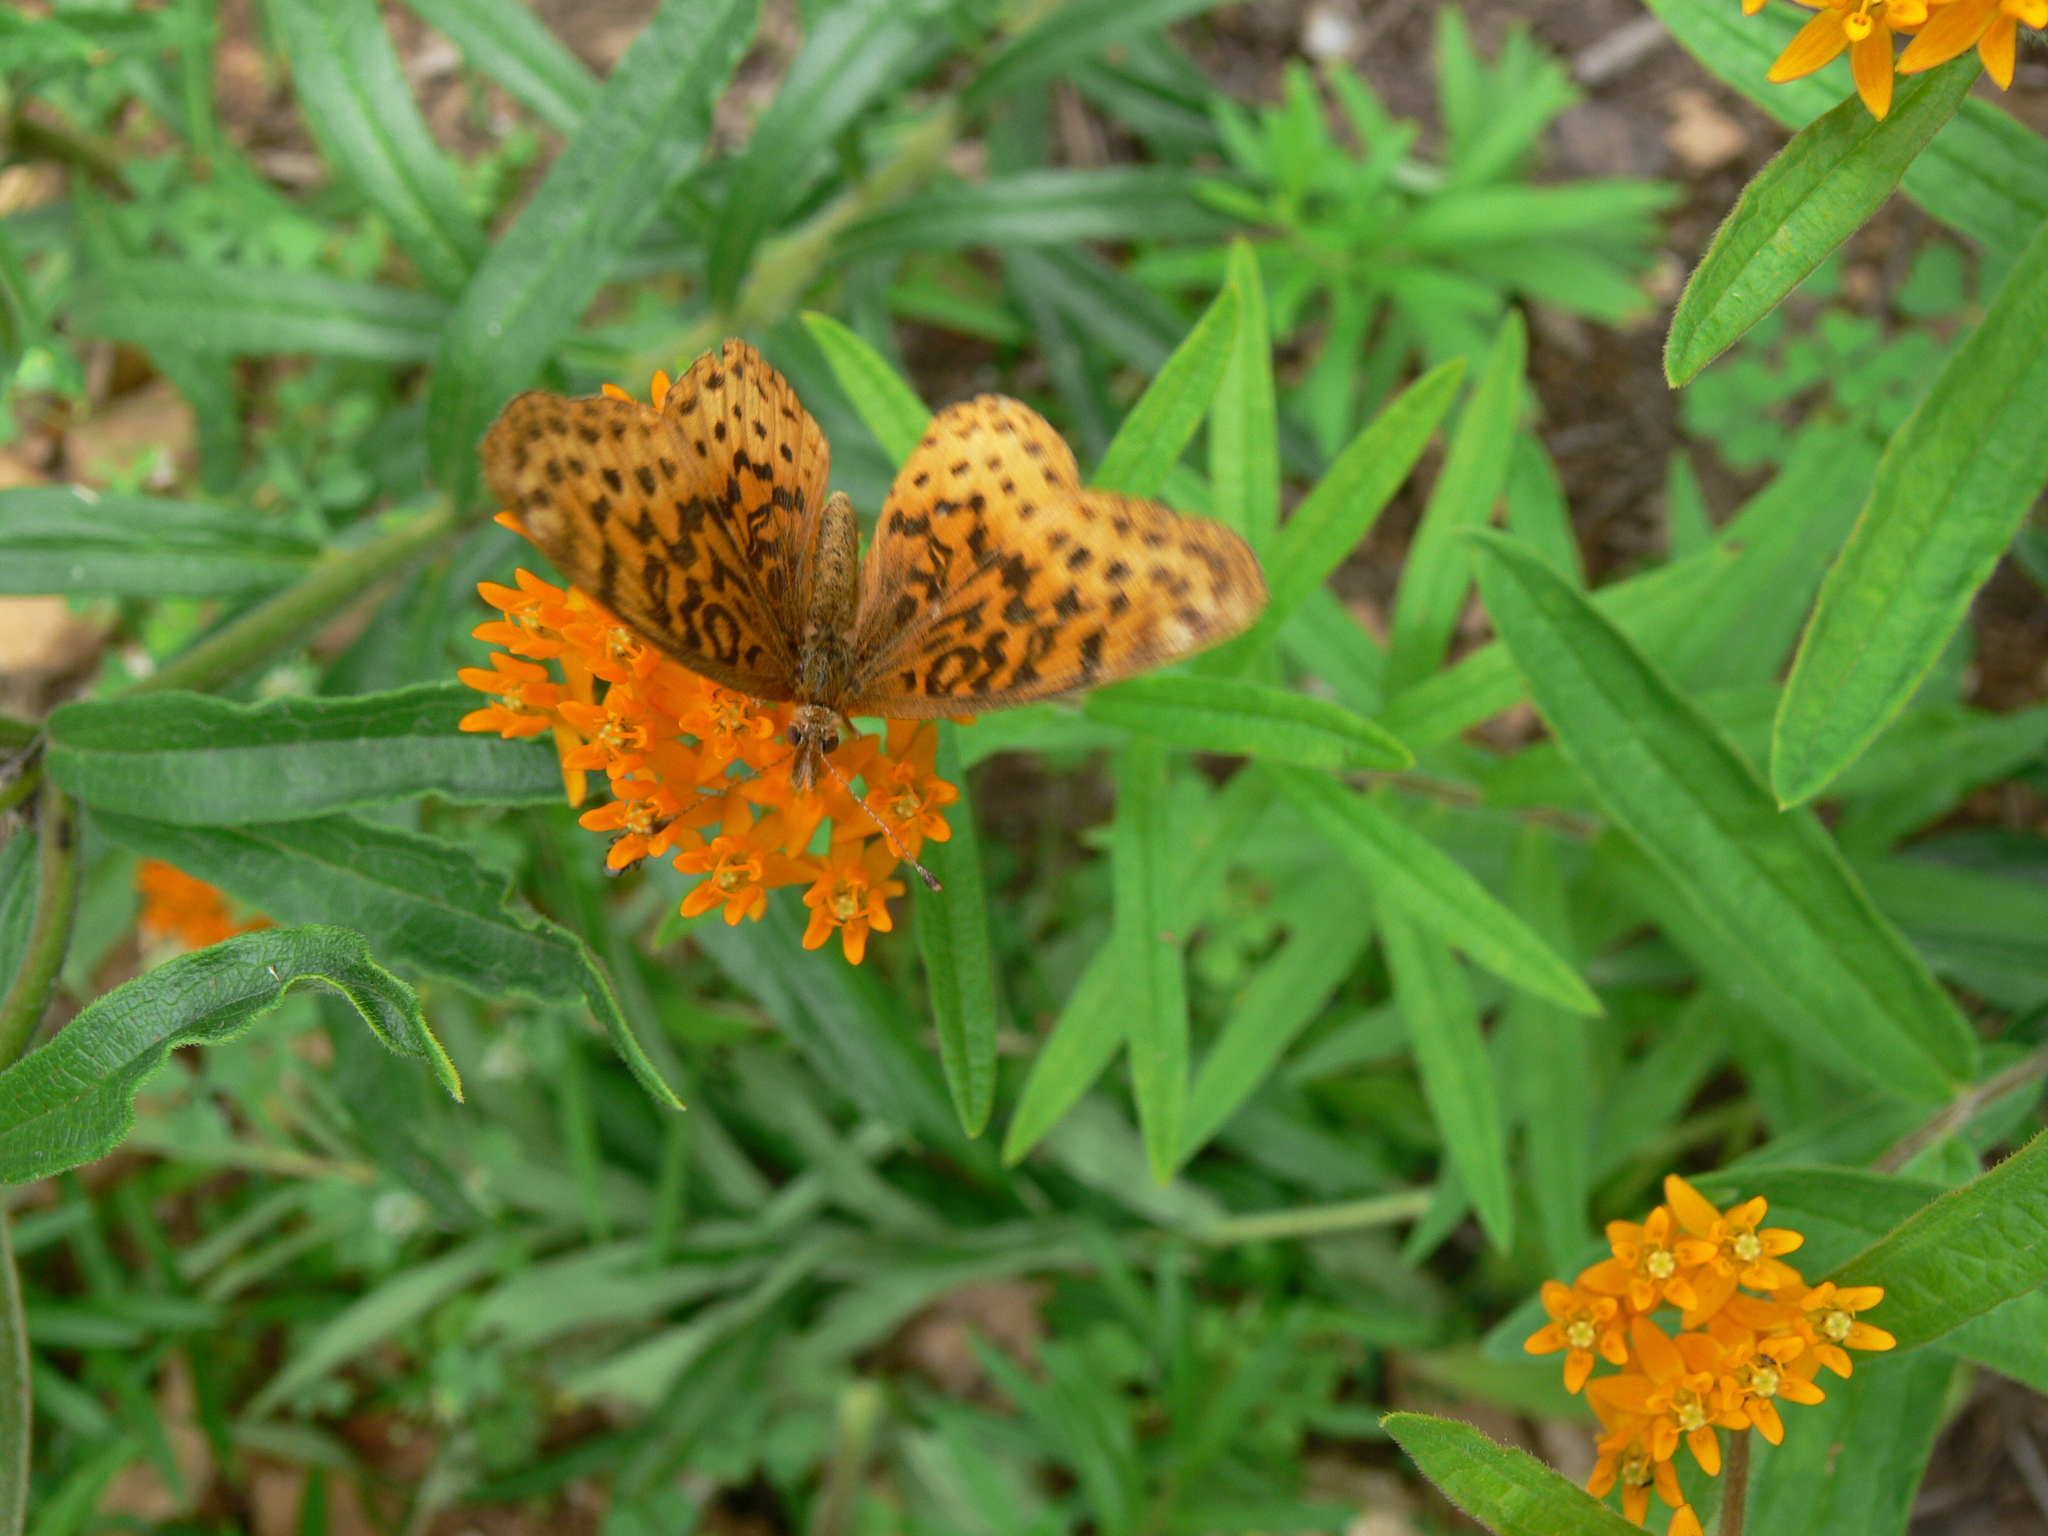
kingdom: Animalia
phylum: Arthropoda
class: Insecta
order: Lepidoptera
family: Nymphalidae
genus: Clossiana
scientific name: Clossiana toddi
